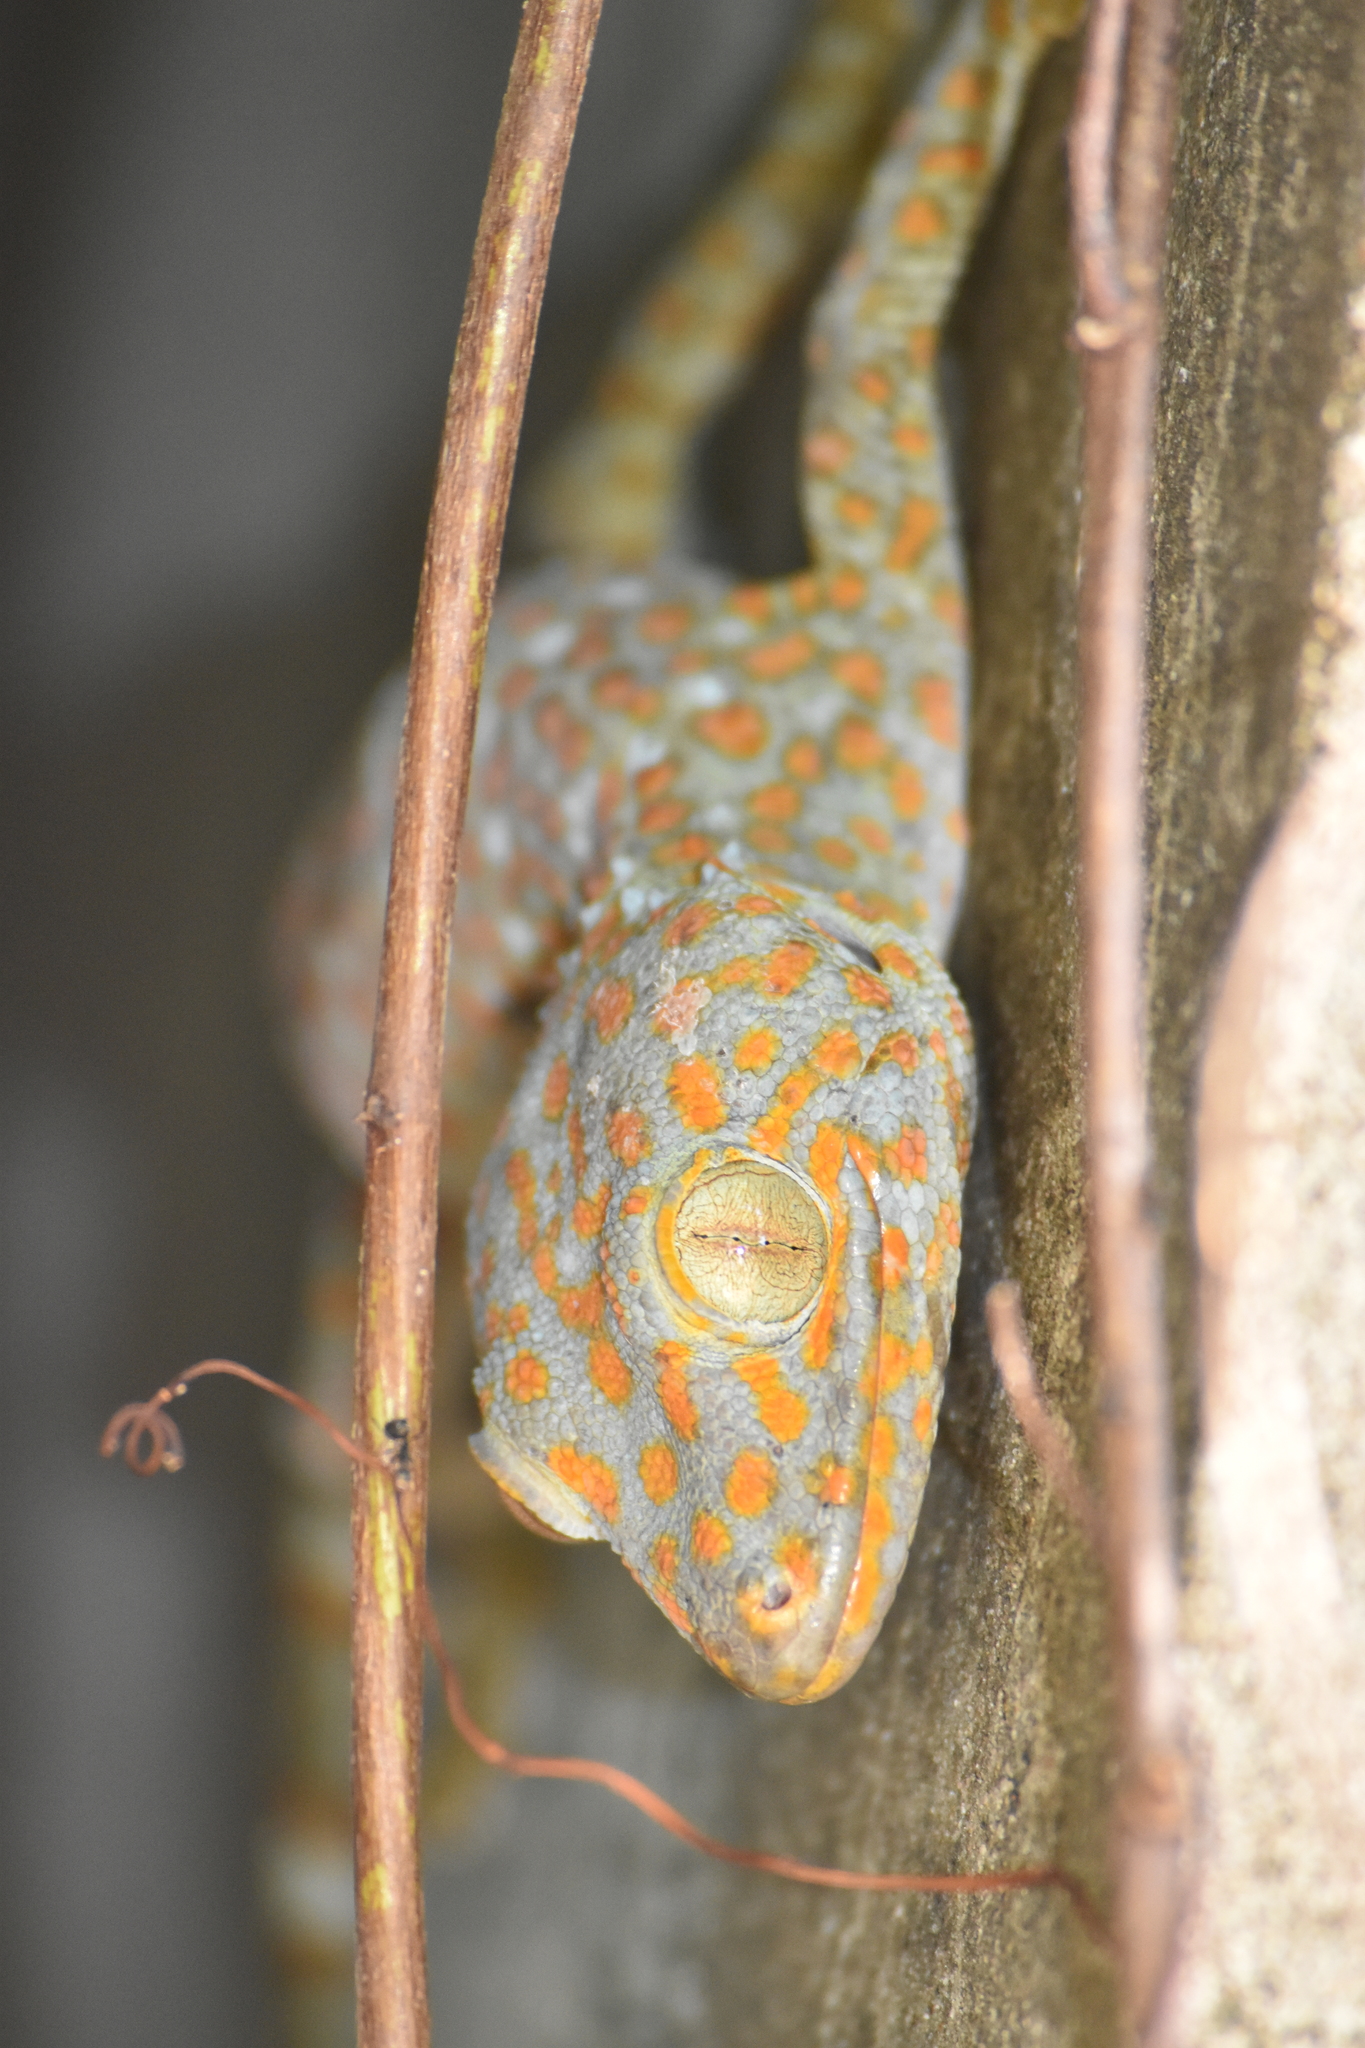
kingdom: Animalia
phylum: Chordata
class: Squamata
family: Gekkonidae
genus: Gekko
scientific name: Gekko gecko
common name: Tokay gecko
